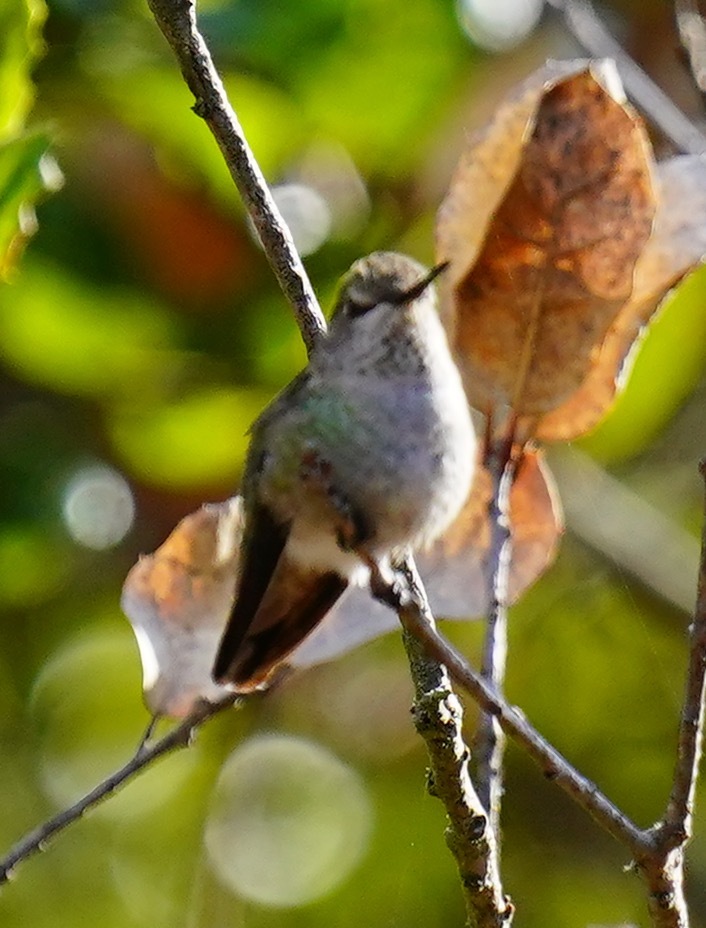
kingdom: Animalia
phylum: Chordata
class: Aves
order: Apodiformes
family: Trochilidae
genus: Calypte
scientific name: Calypte anna
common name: Anna's hummingbird
